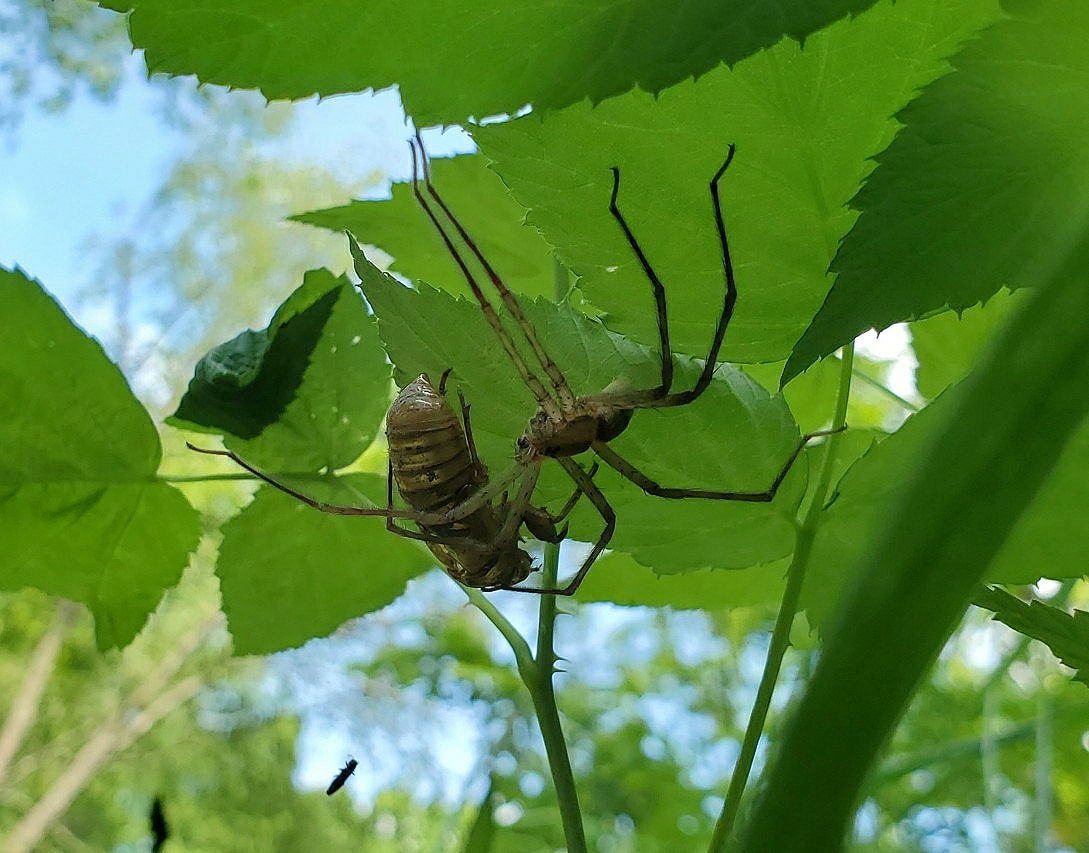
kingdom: Animalia
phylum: Arthropoda
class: Arachnida
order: Araneae
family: Pisauridae
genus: Pisaurina
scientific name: Pisaurina mira
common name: American nursery web spider
